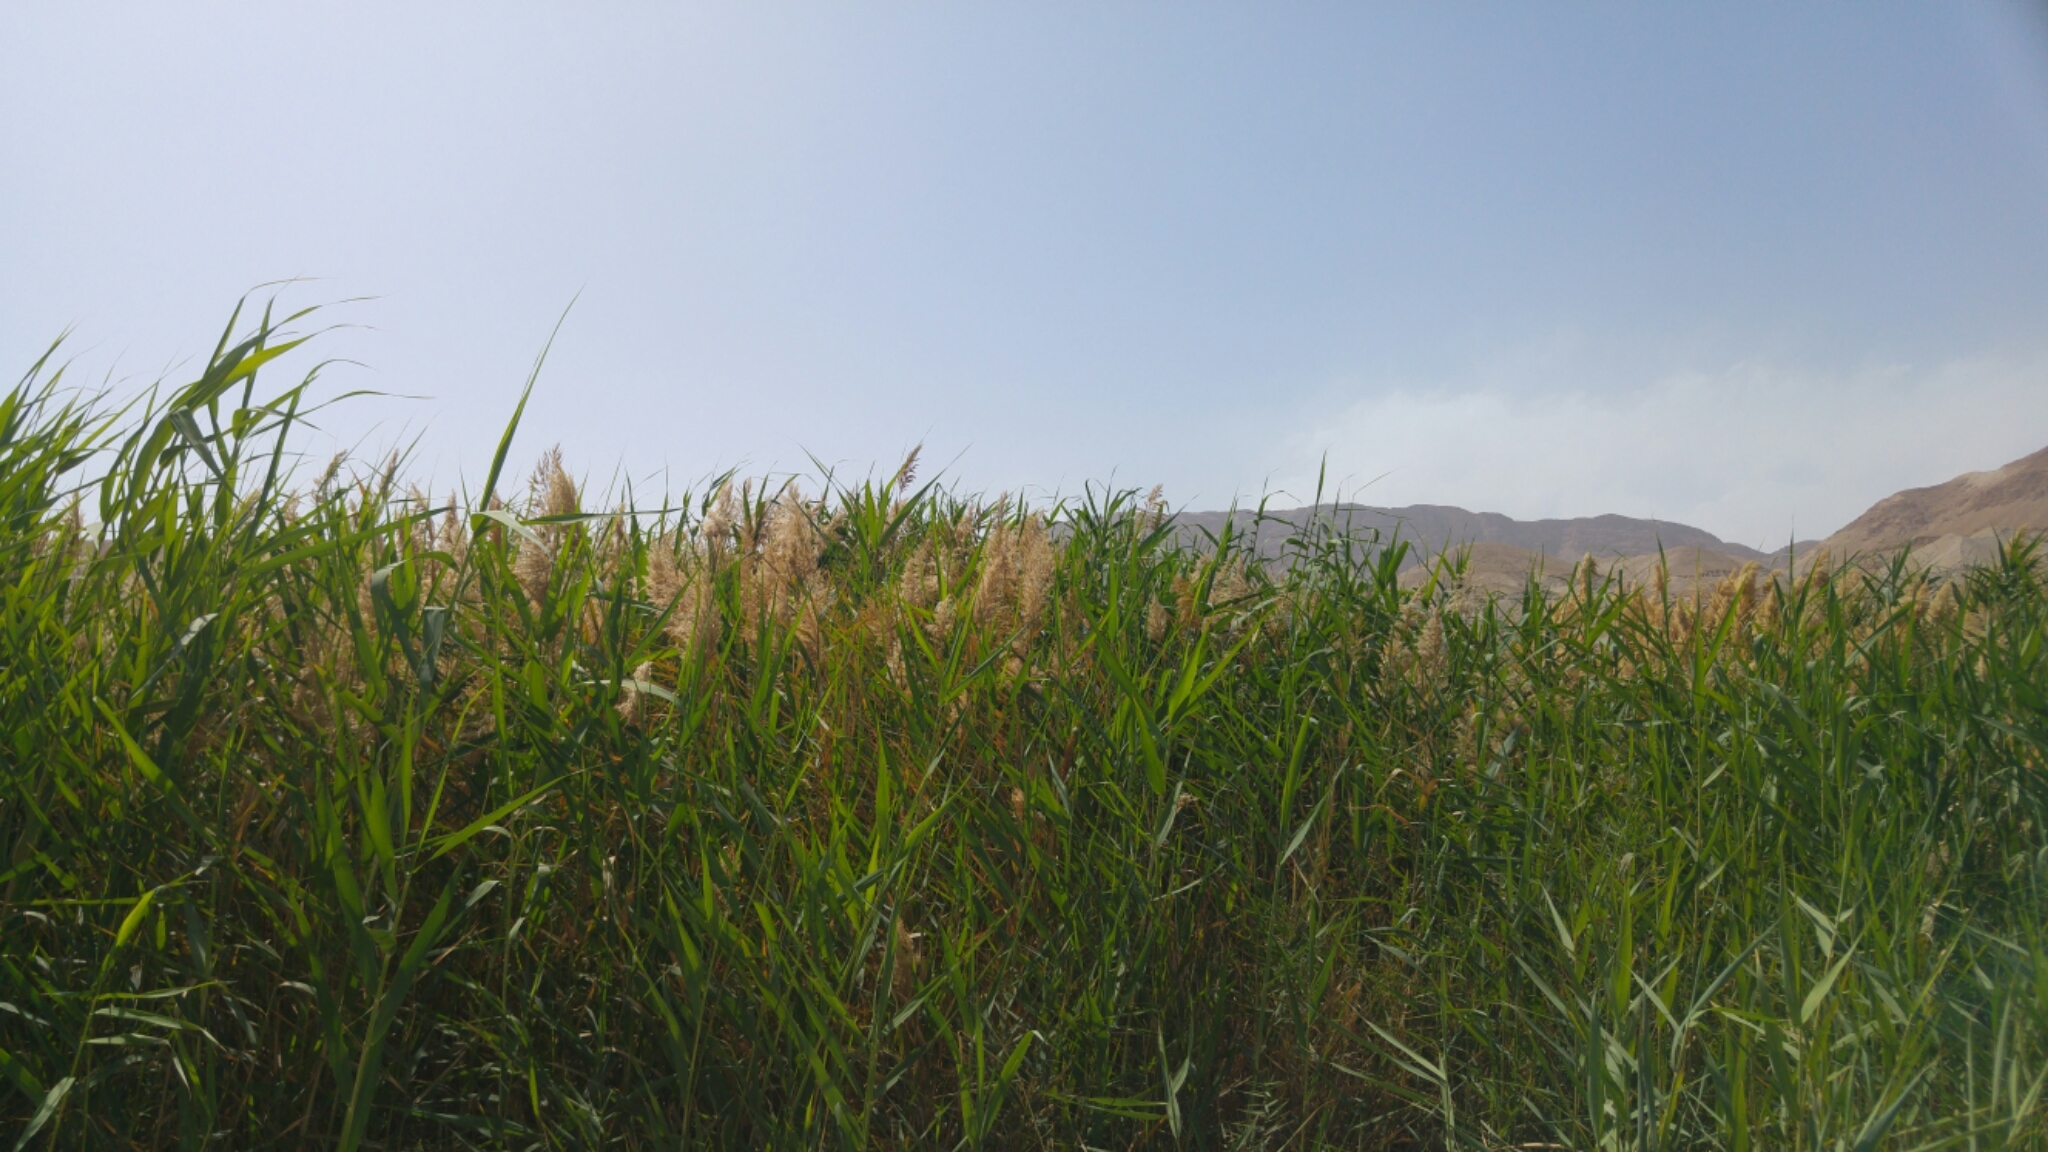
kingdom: Plantae
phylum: Tracheophyta
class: Liliopsida
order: Poales
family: Poaceae
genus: Phragmites
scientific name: Phragmites australis
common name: Common reed
